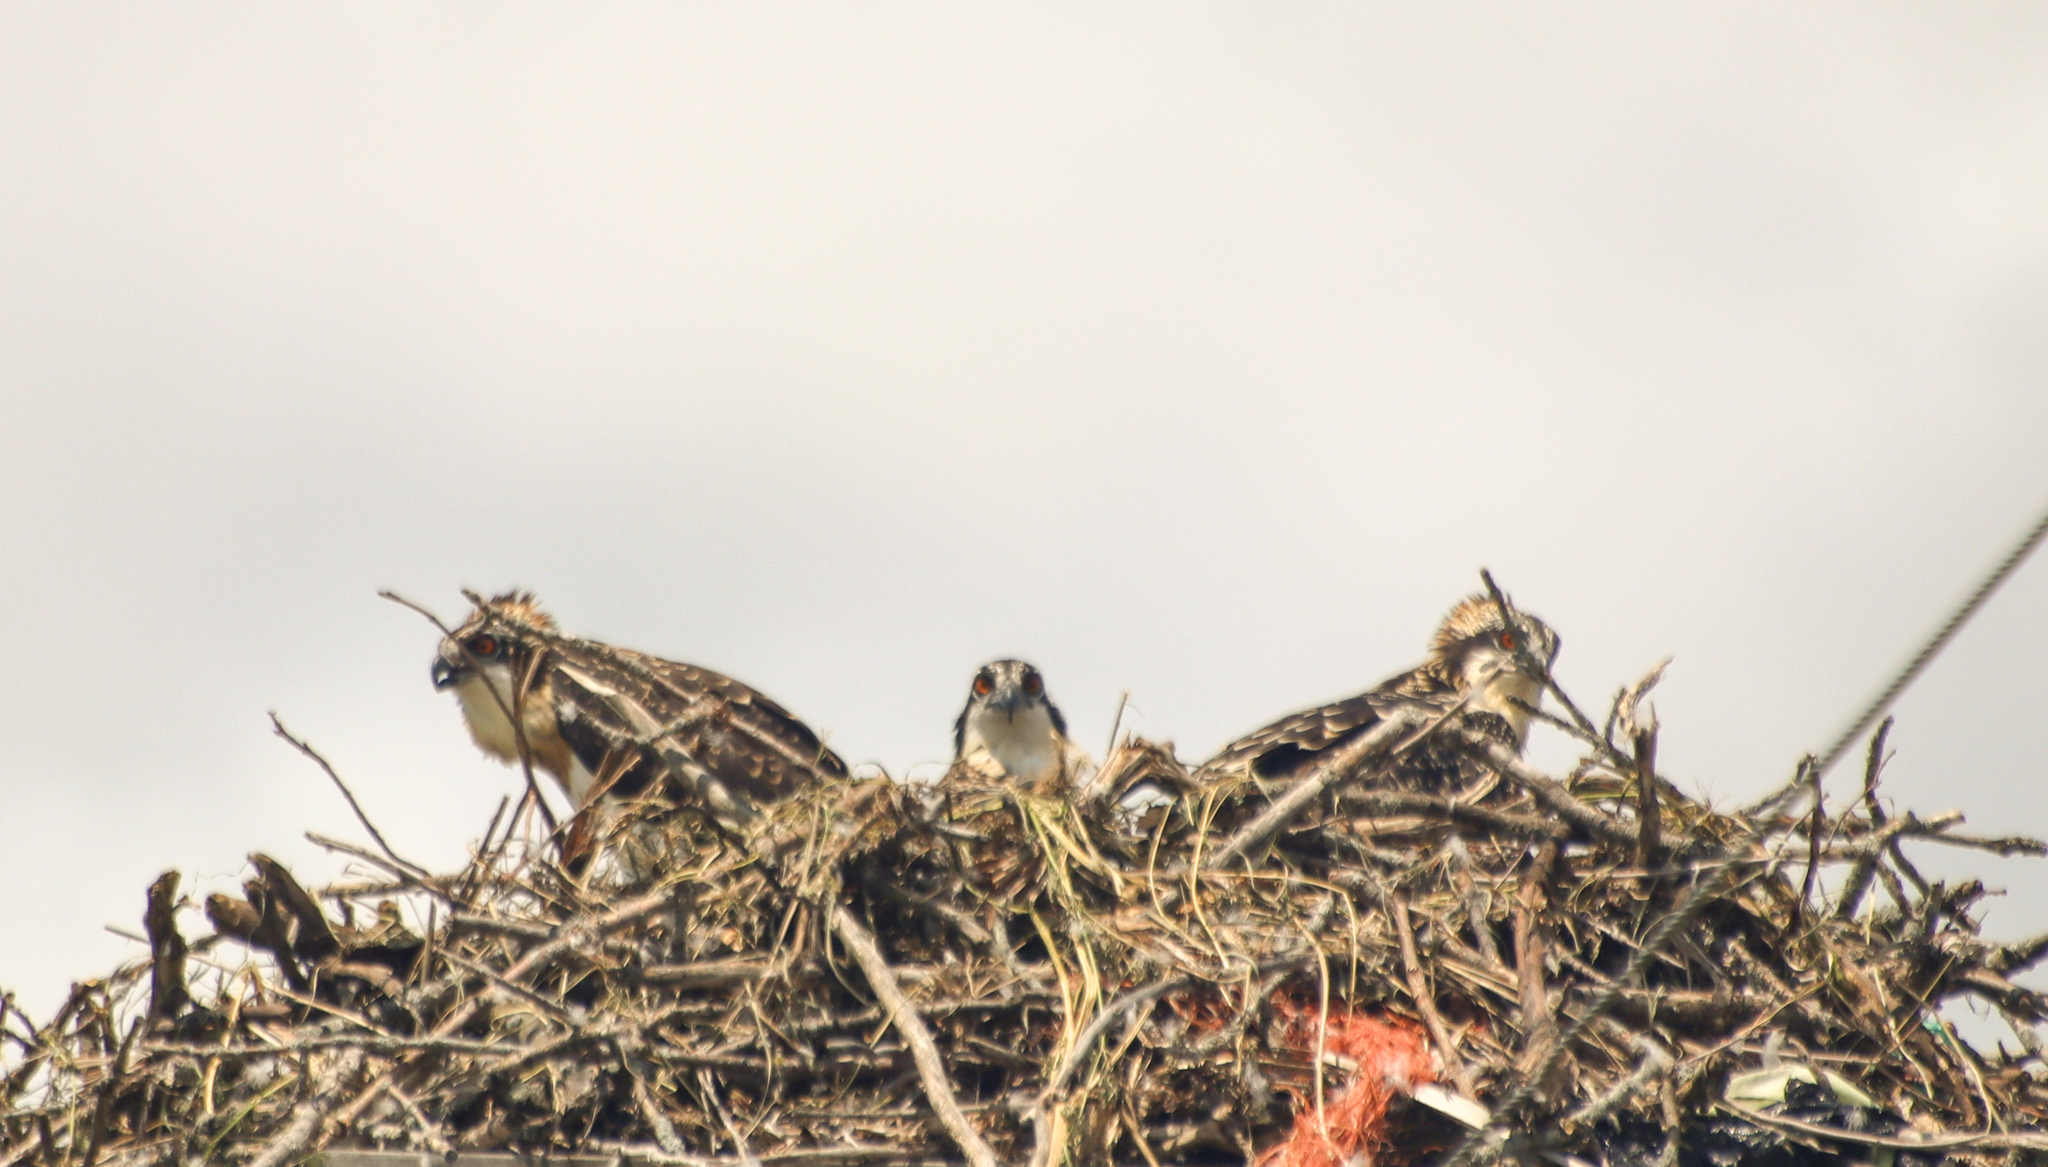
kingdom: Animalia
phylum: Chordata
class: Aves
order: Accipitriformes
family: Pandionidae
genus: Pandion
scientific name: Pandion haliaetus
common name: Osprey
